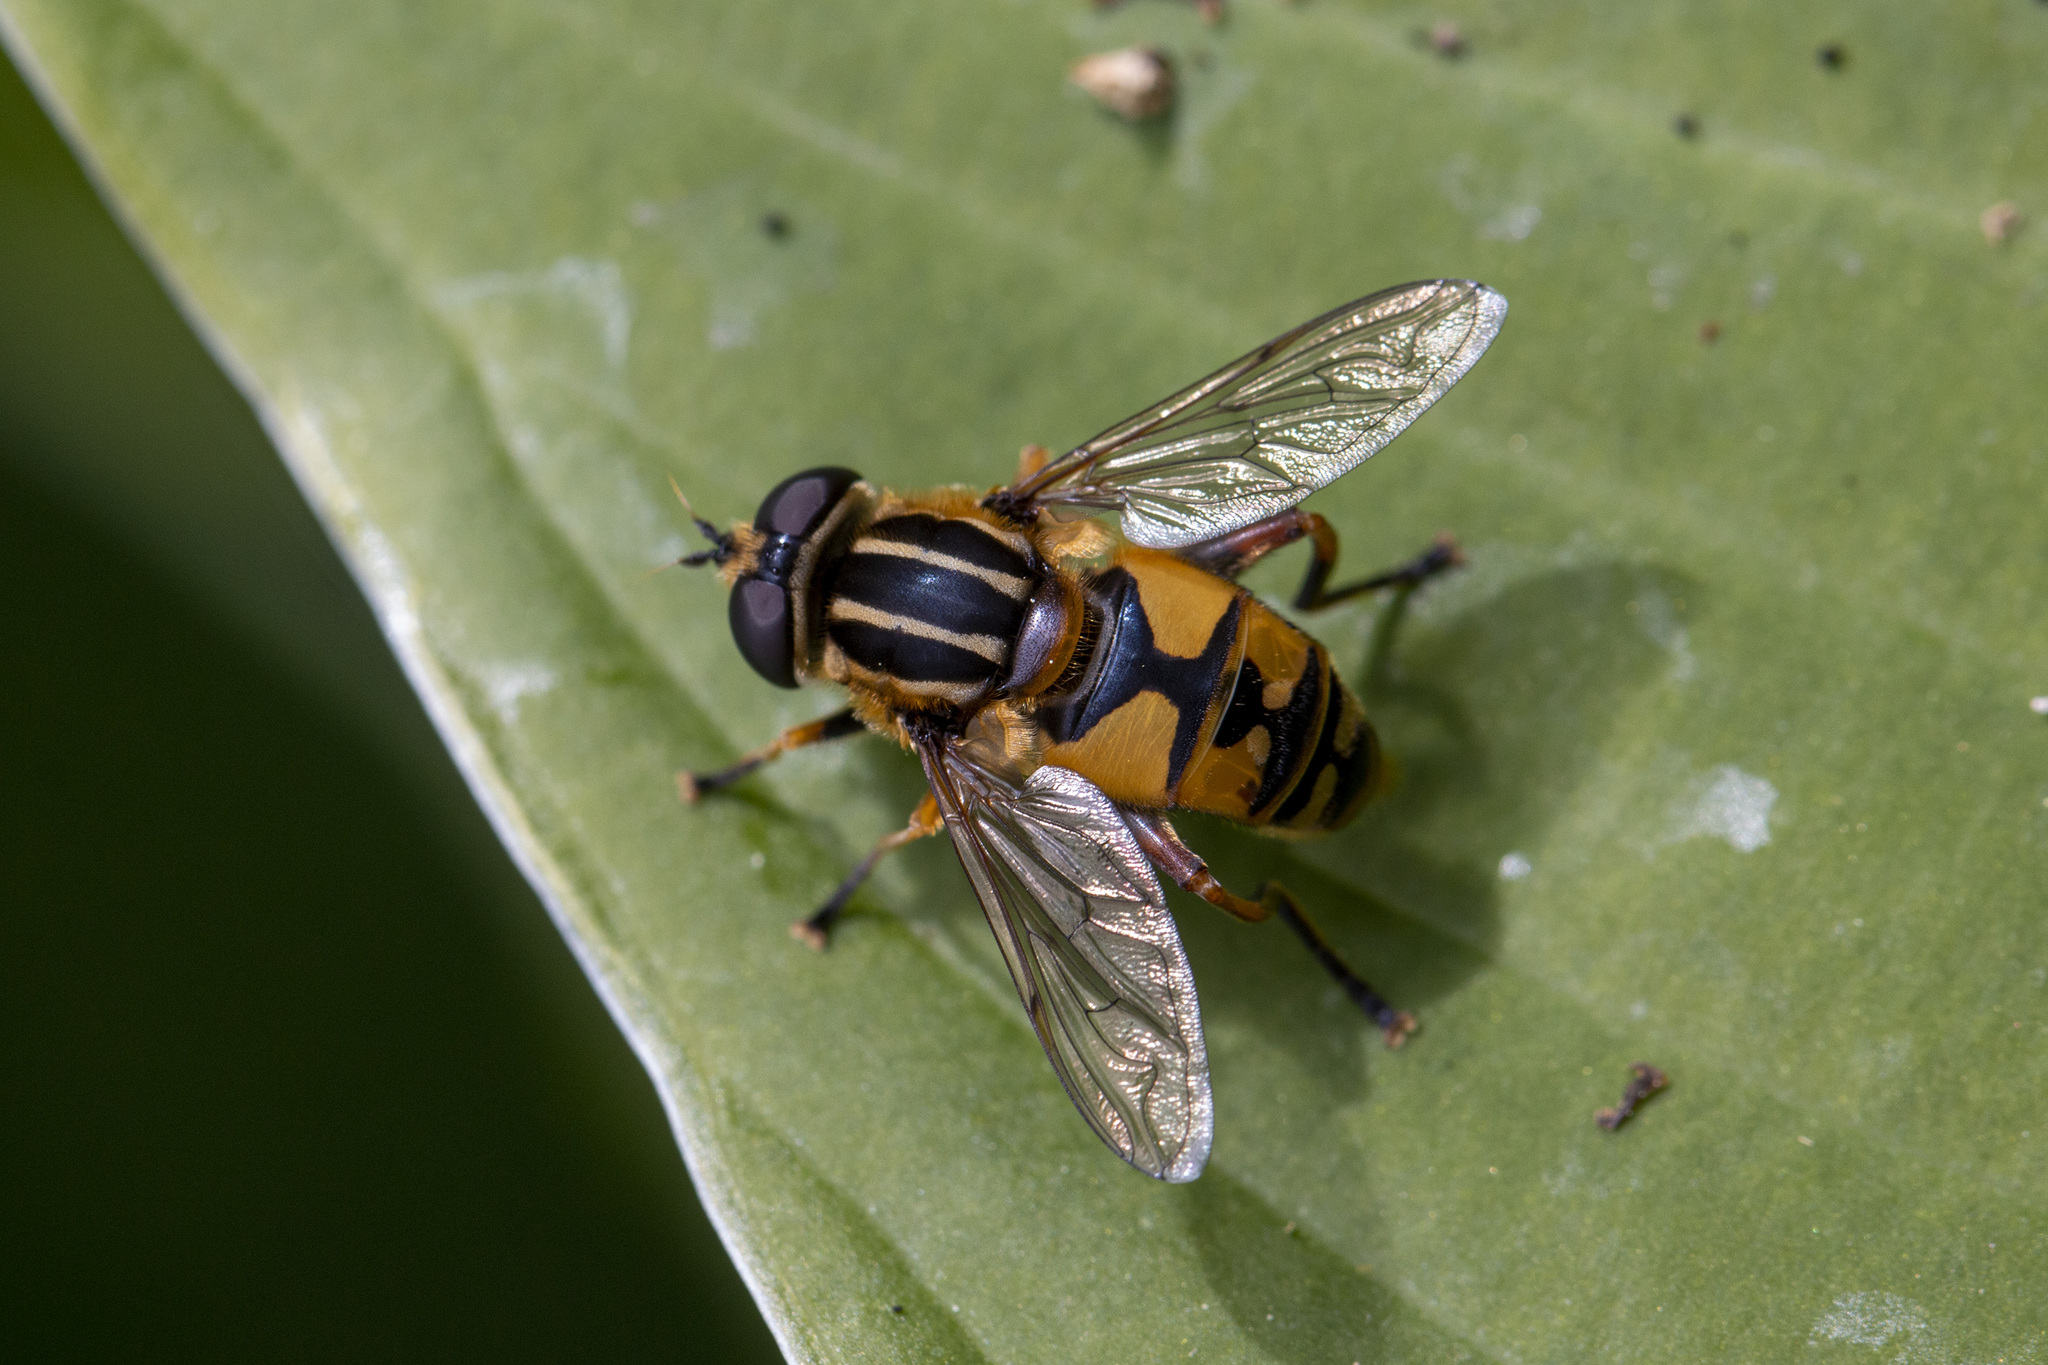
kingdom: Animalia
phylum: Arthropoda
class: Insecta
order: Diptera
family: Syrphidae
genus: Helophilus
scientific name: Helophilus pendulus
